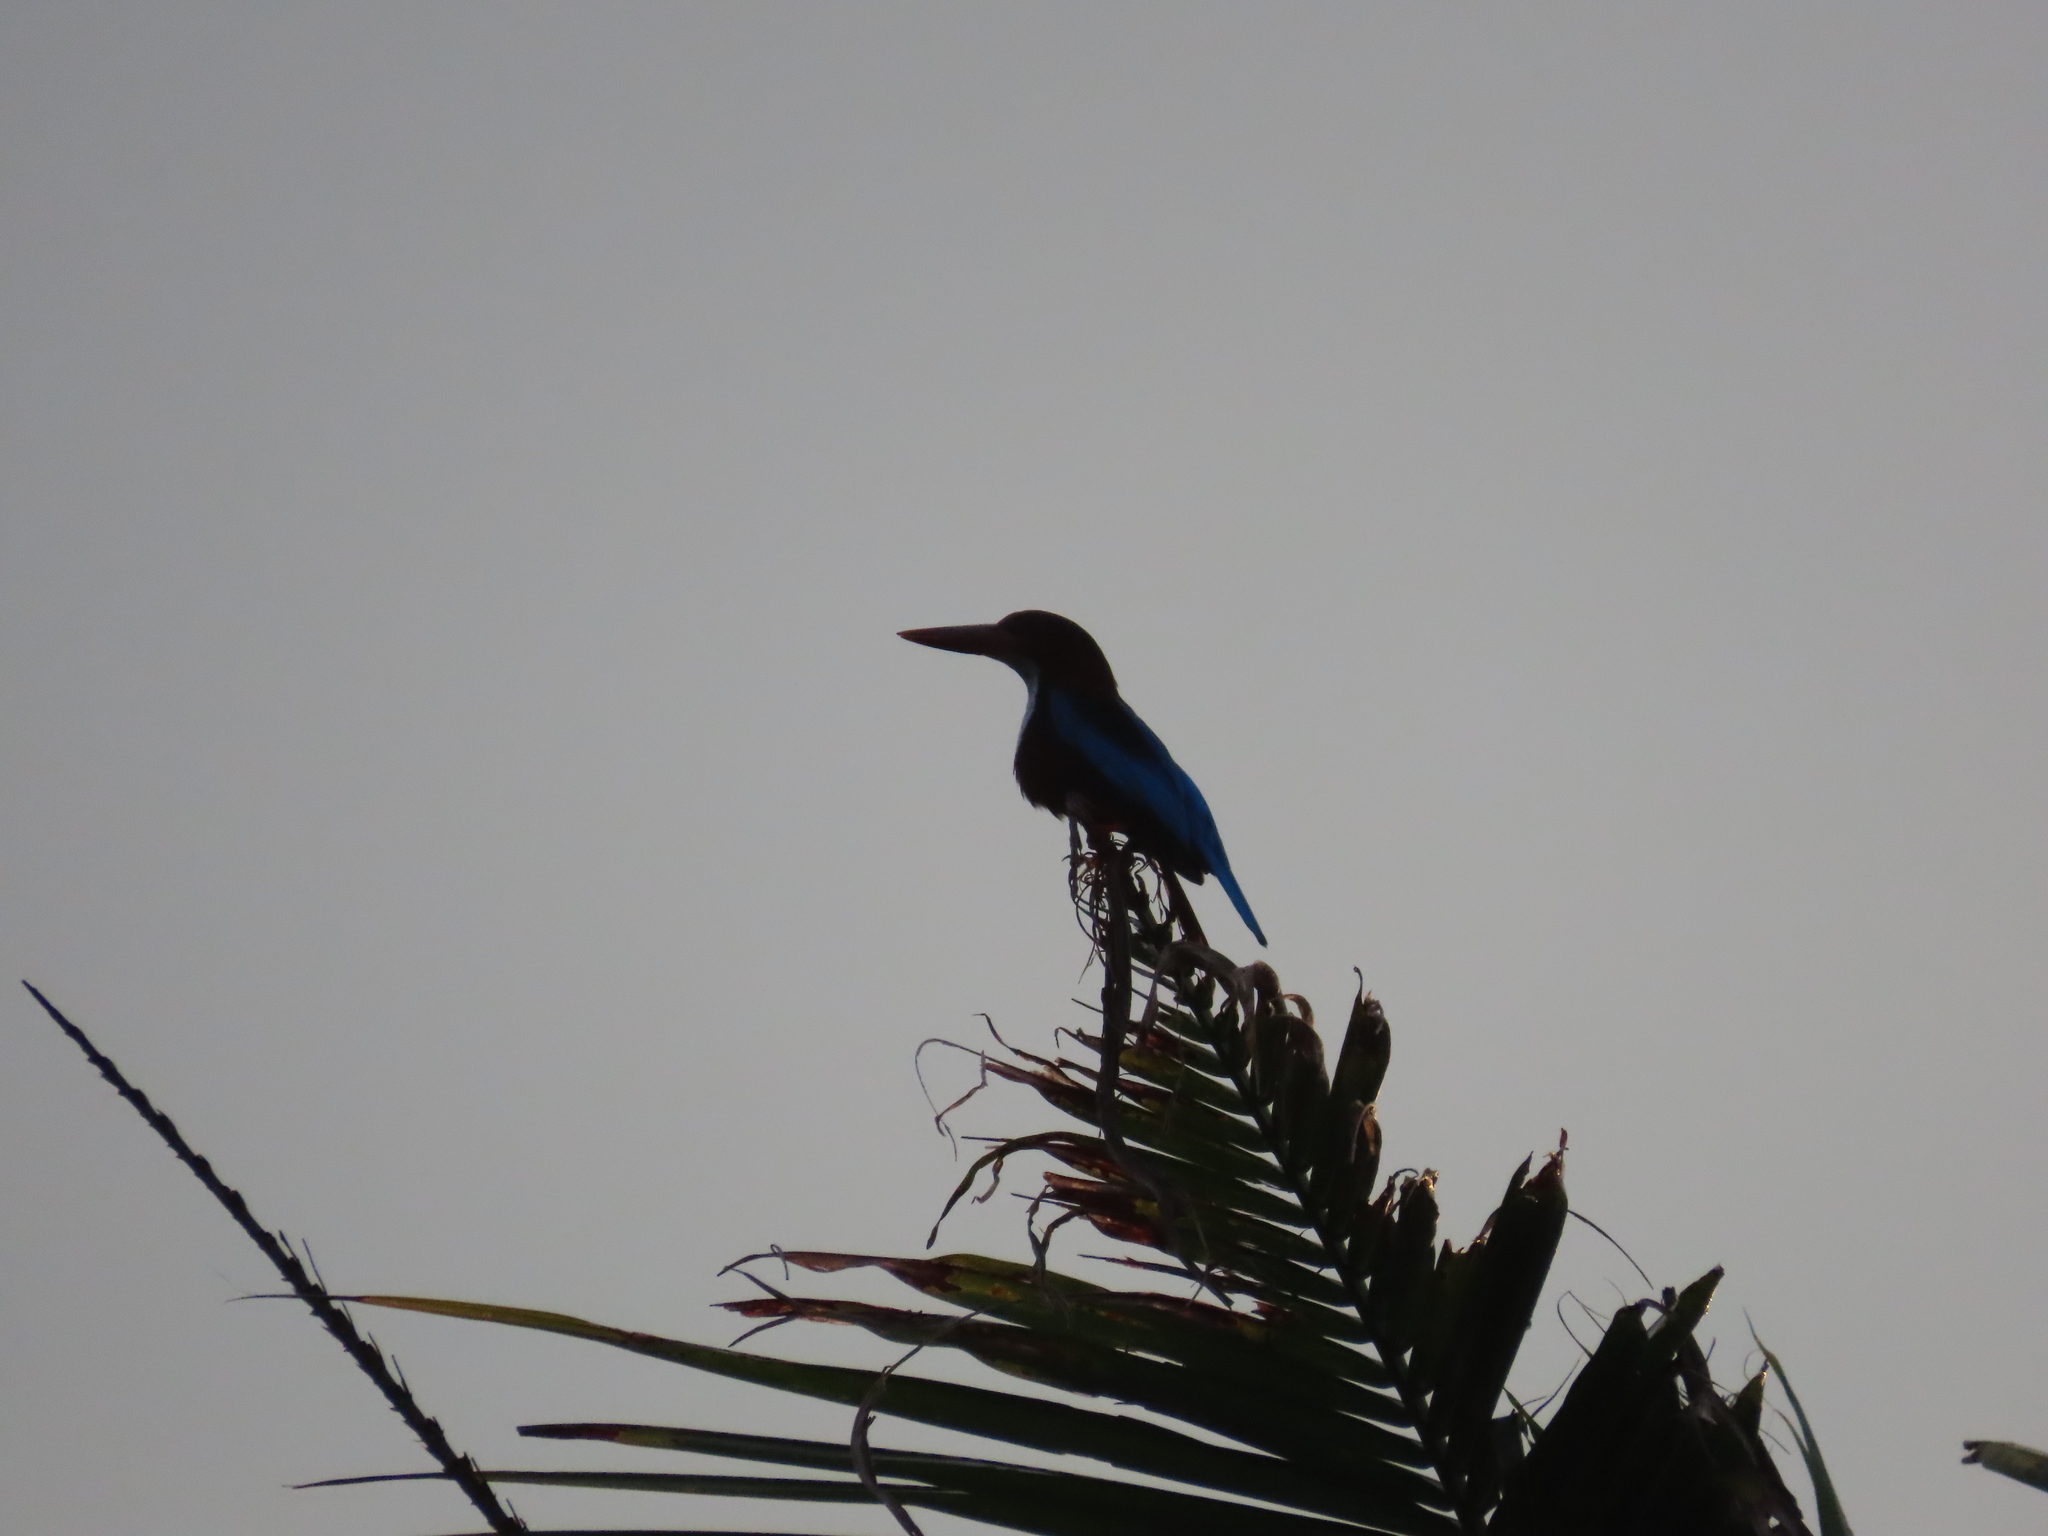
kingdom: Animalia
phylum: Chordata
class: Aves
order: Coraciiformes
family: Alcedinidae
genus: Halcyon
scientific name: Halcyon smyrnensis
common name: White-throated kingfisher
